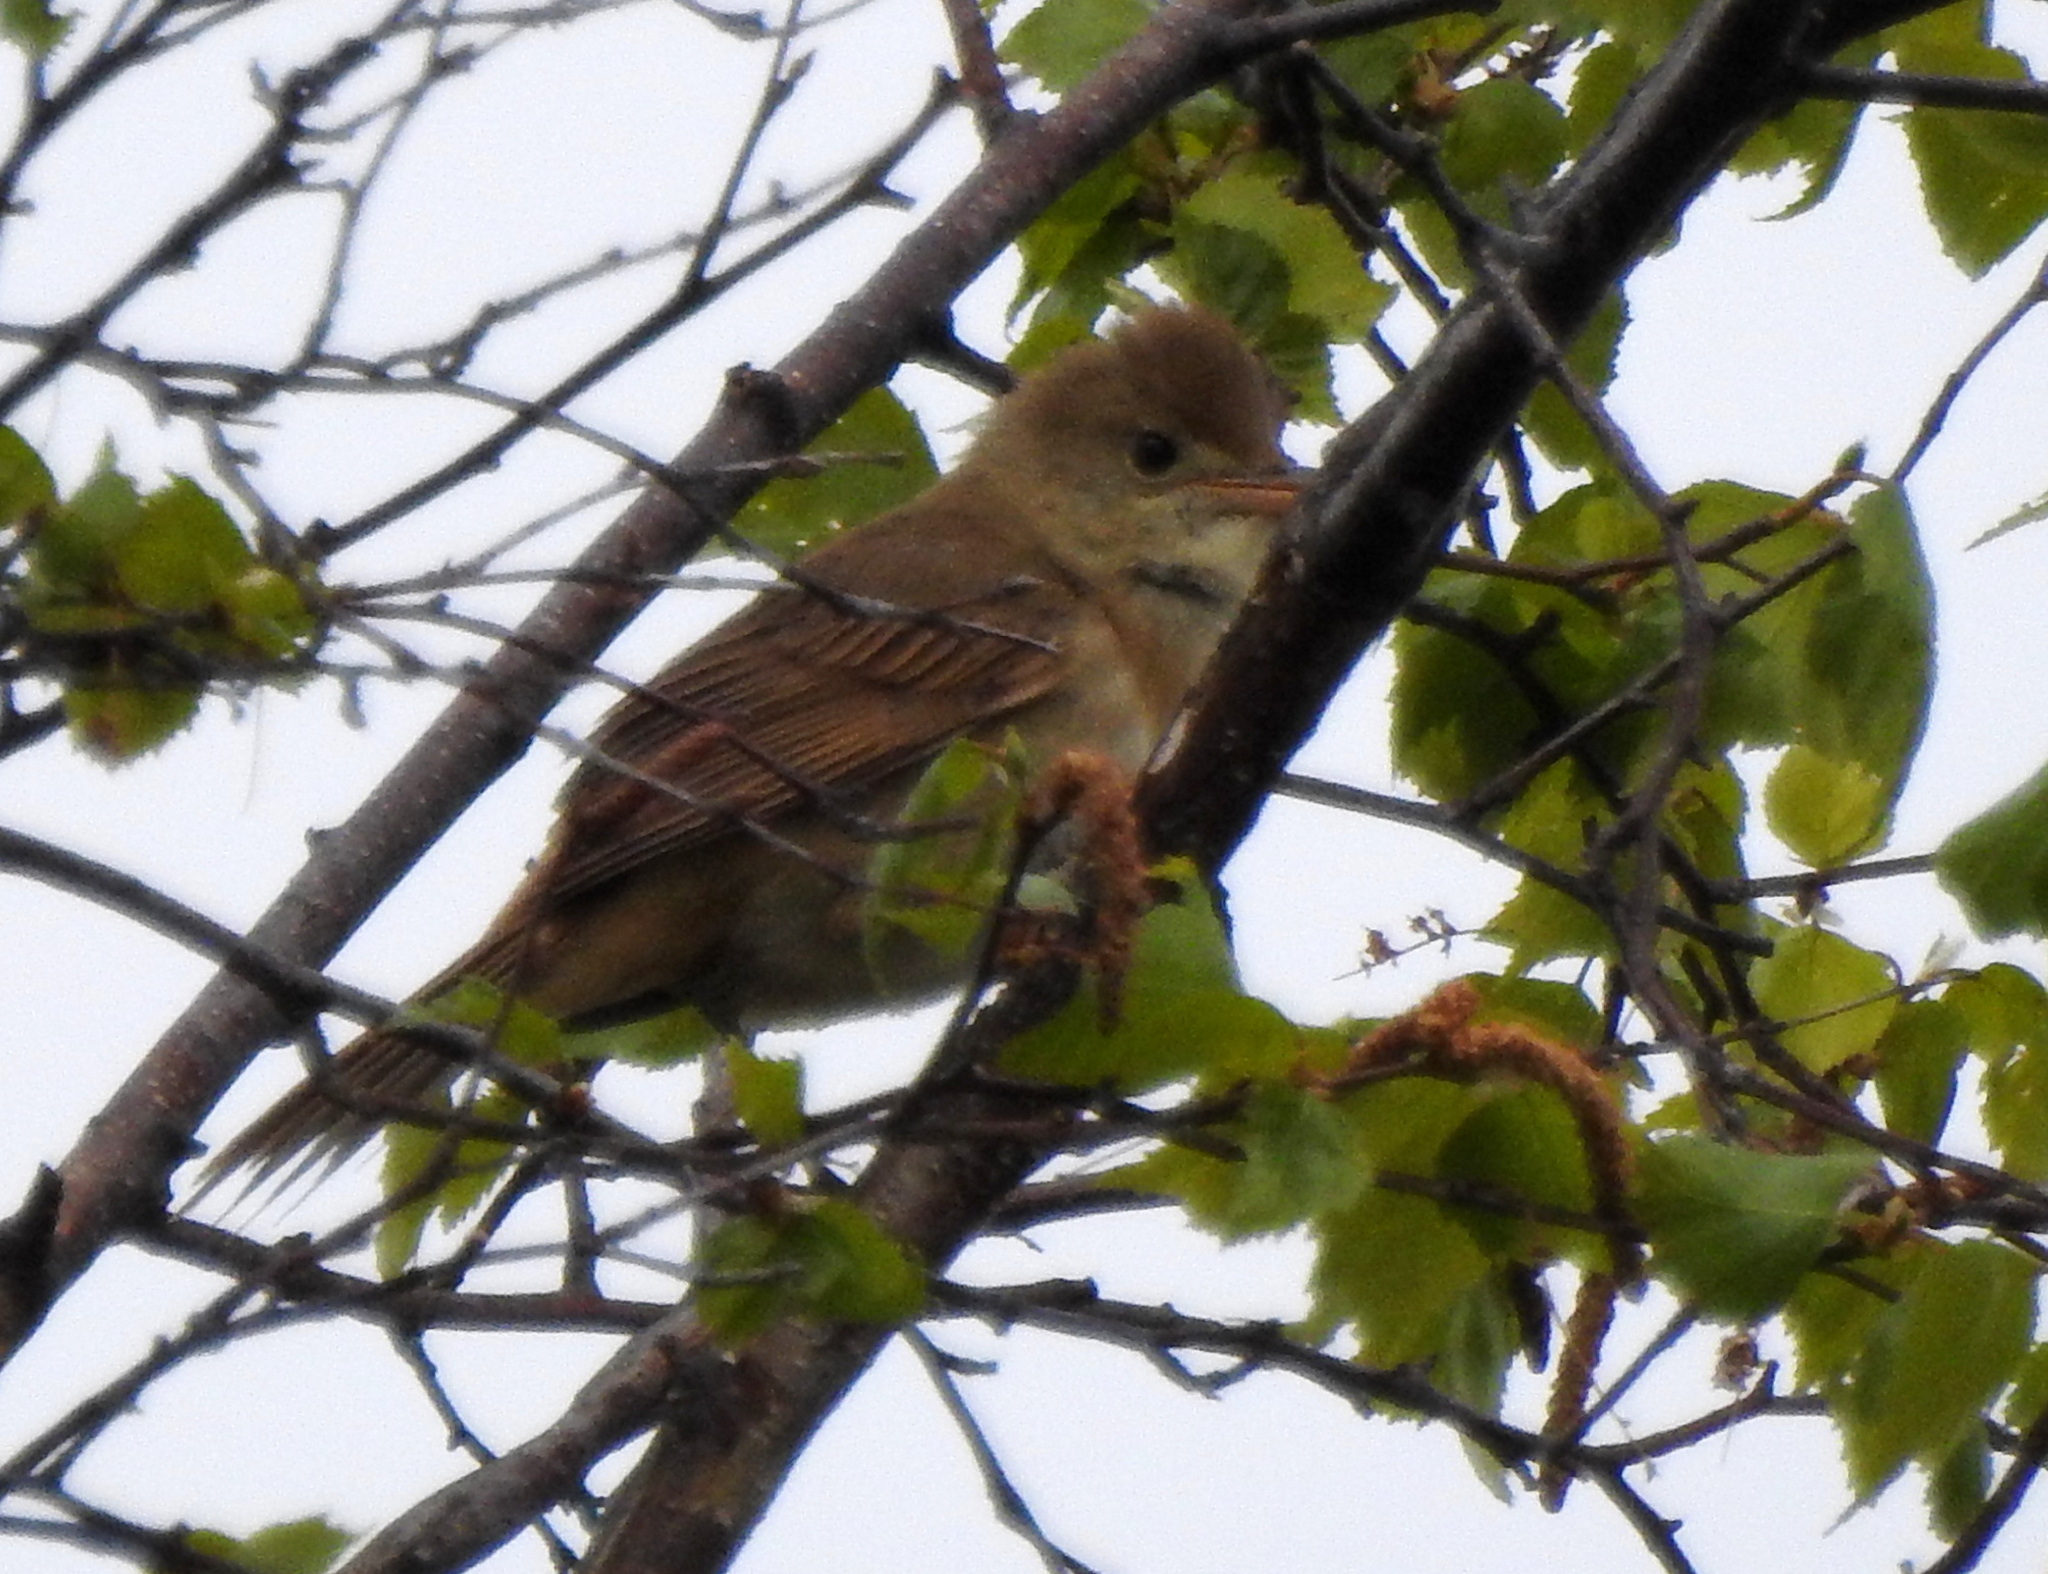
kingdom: Animalia
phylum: Chordata
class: Aves
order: Passeriformes
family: Acrocephalidae
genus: Iduna
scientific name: Iduna aedon
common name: Thick-billed warbler
